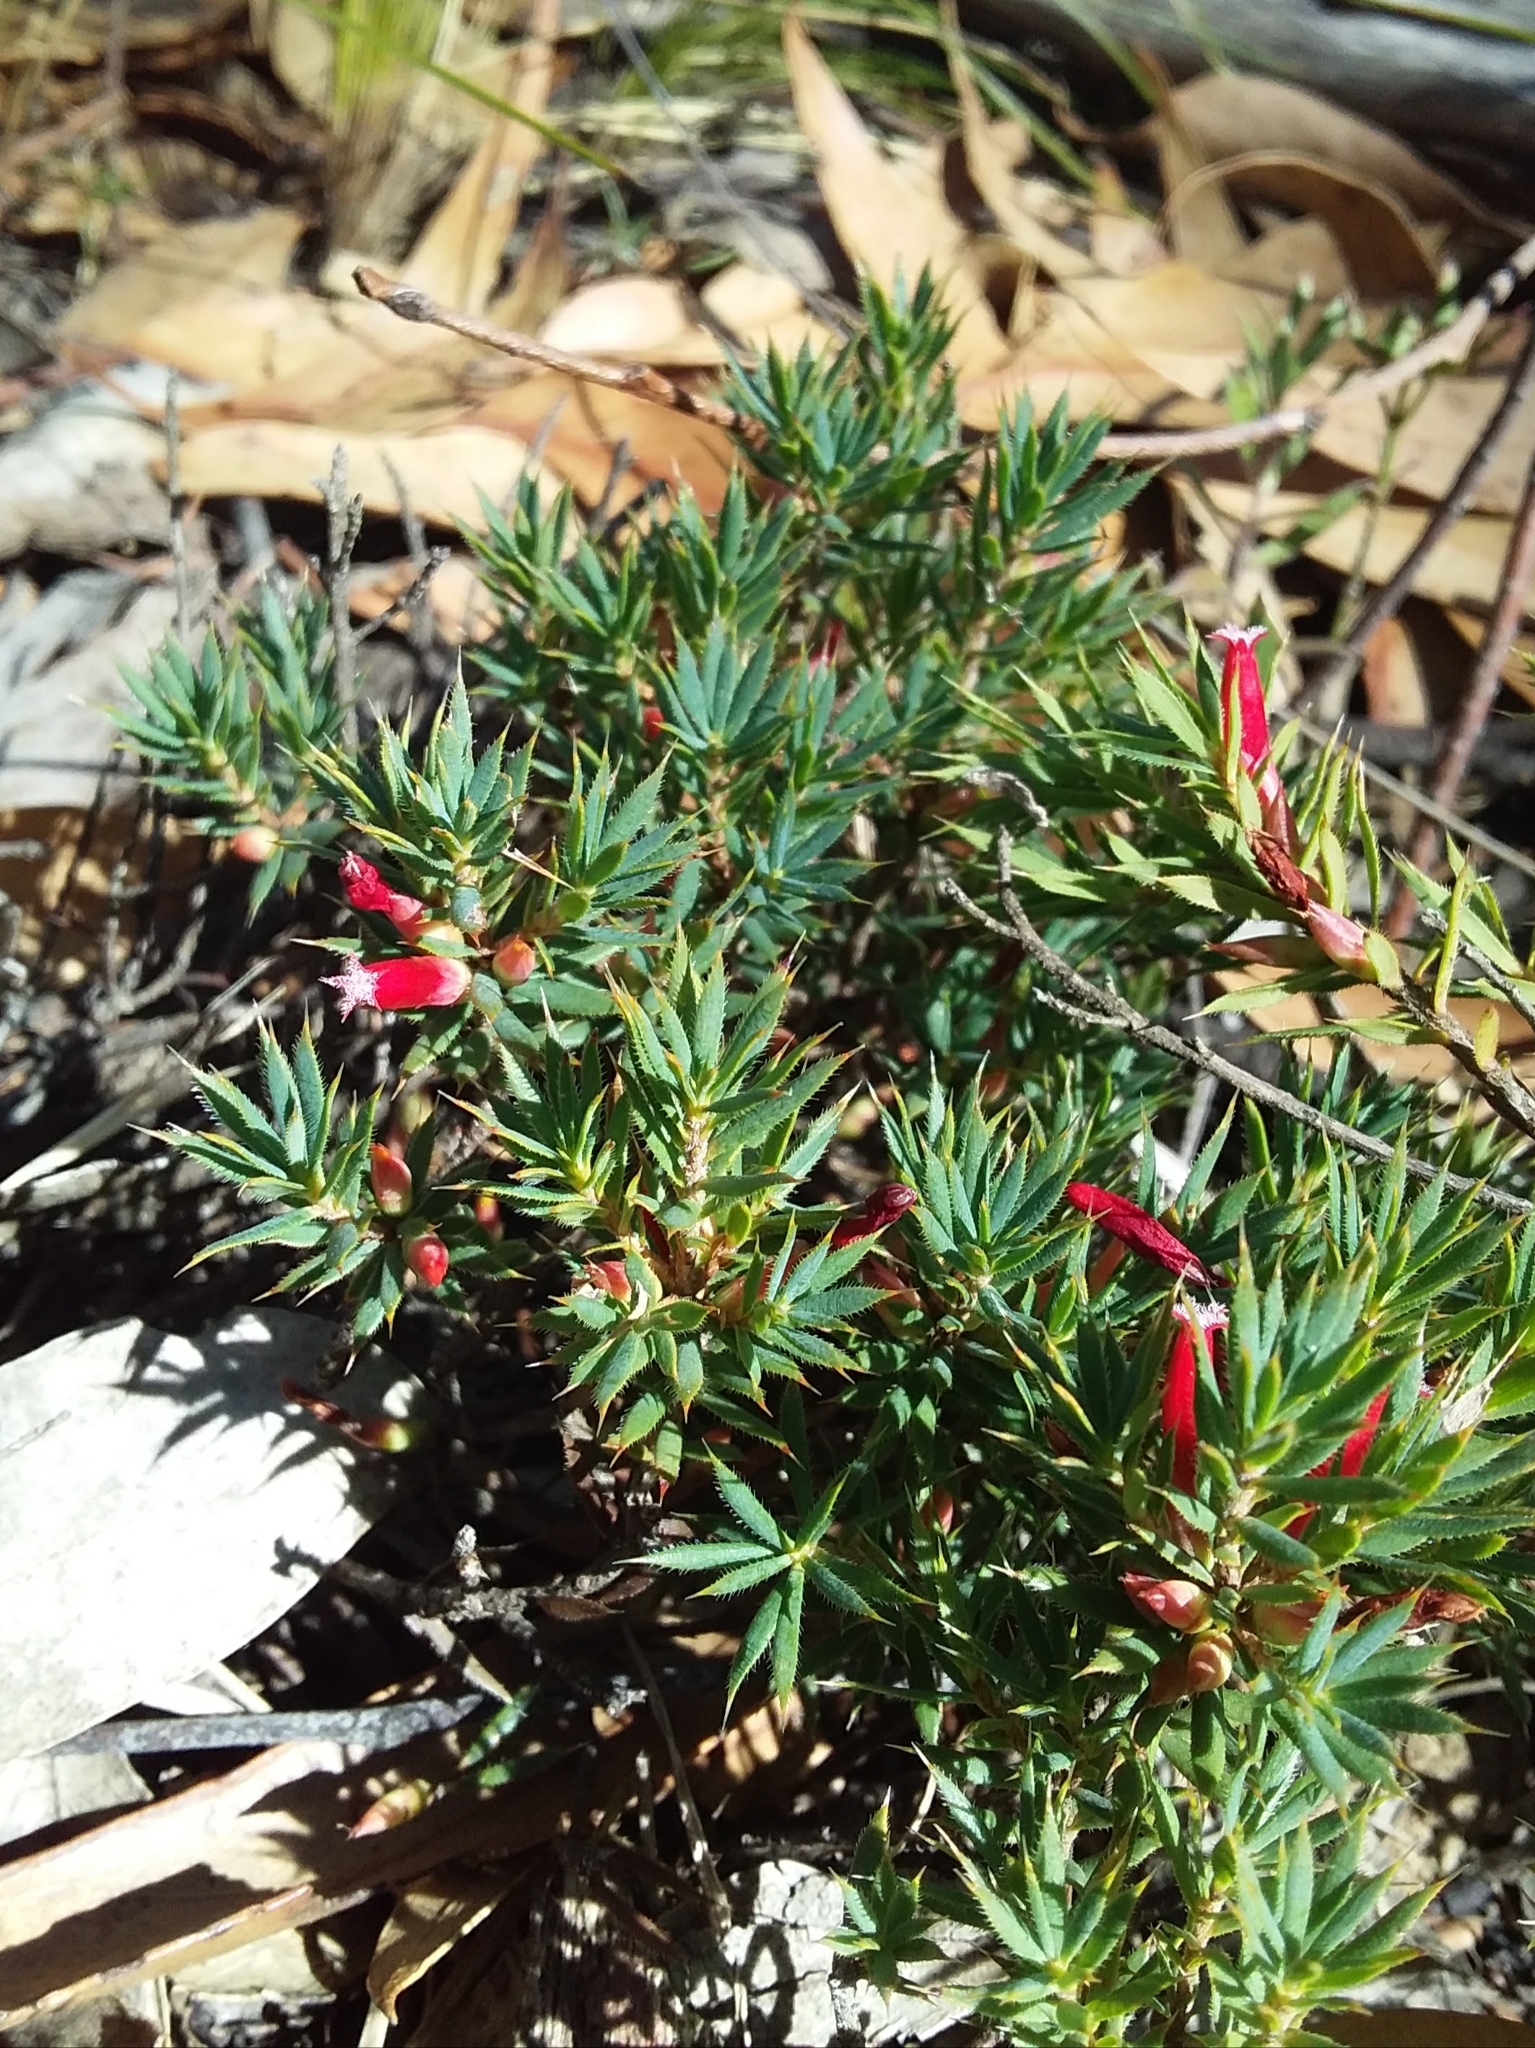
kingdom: Plantae
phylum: Tracheophyta
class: Magnoliopsida
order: Ericales
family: Ericaceae
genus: Styphelia
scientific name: Styphelia humifusa
